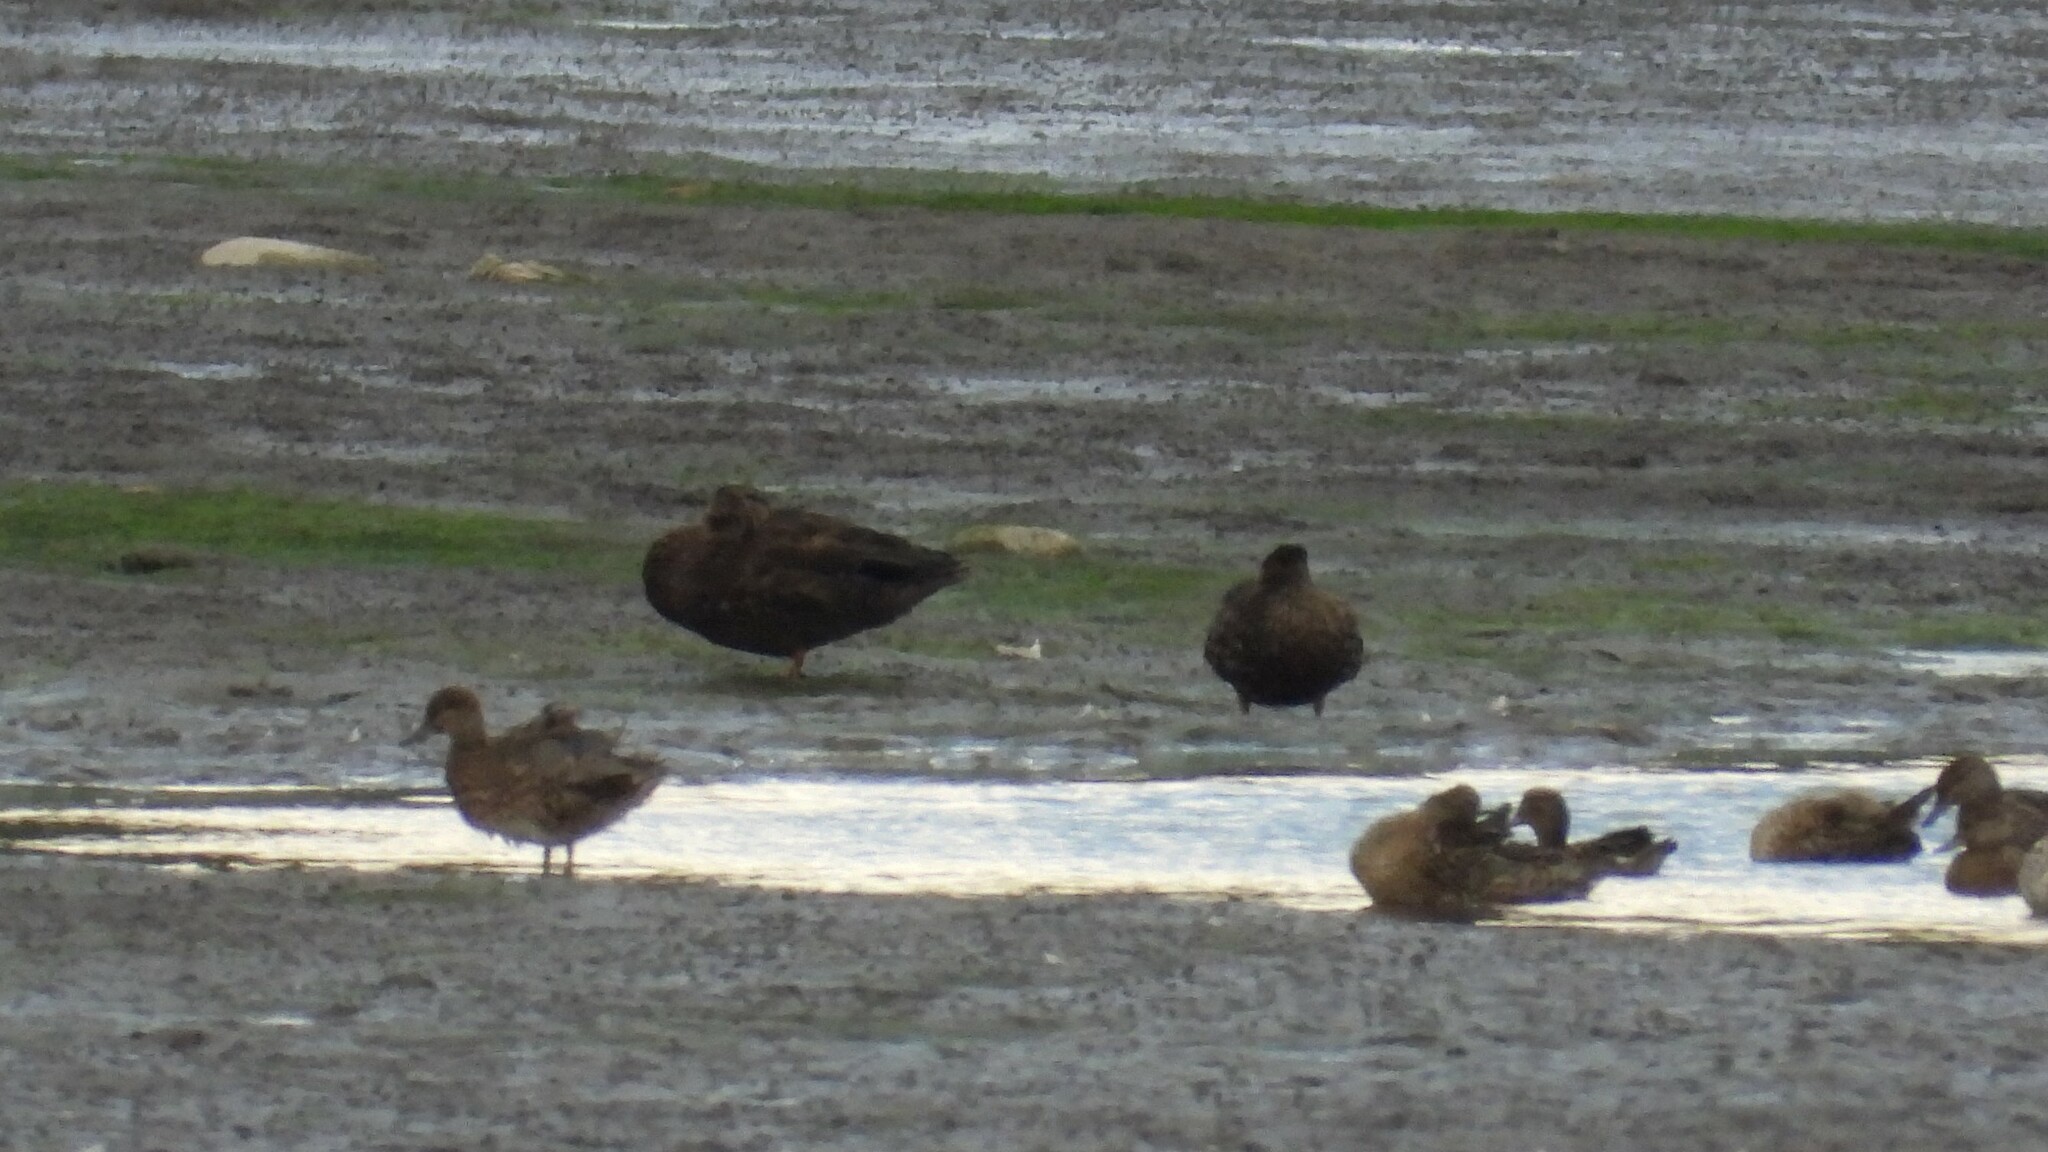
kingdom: Animalia
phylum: Chordata
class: Aves
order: Anseriformes
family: Anatidae
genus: Anas
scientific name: Anas rubripes
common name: American black duck
